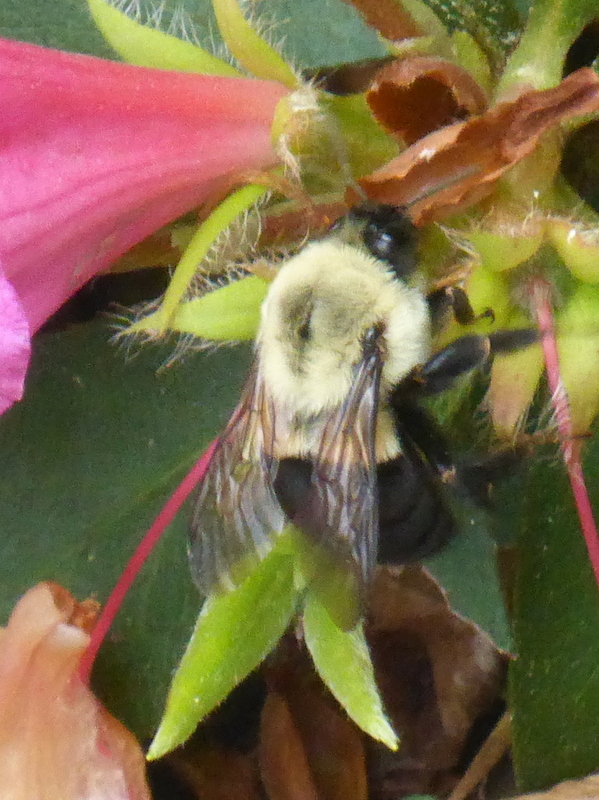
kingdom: Animalia
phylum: Arthropoda
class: Insecta
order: Hymenoptera
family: Apidae
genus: Bombus
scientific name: Bombus impatiens
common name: Common eastern bumble bee
